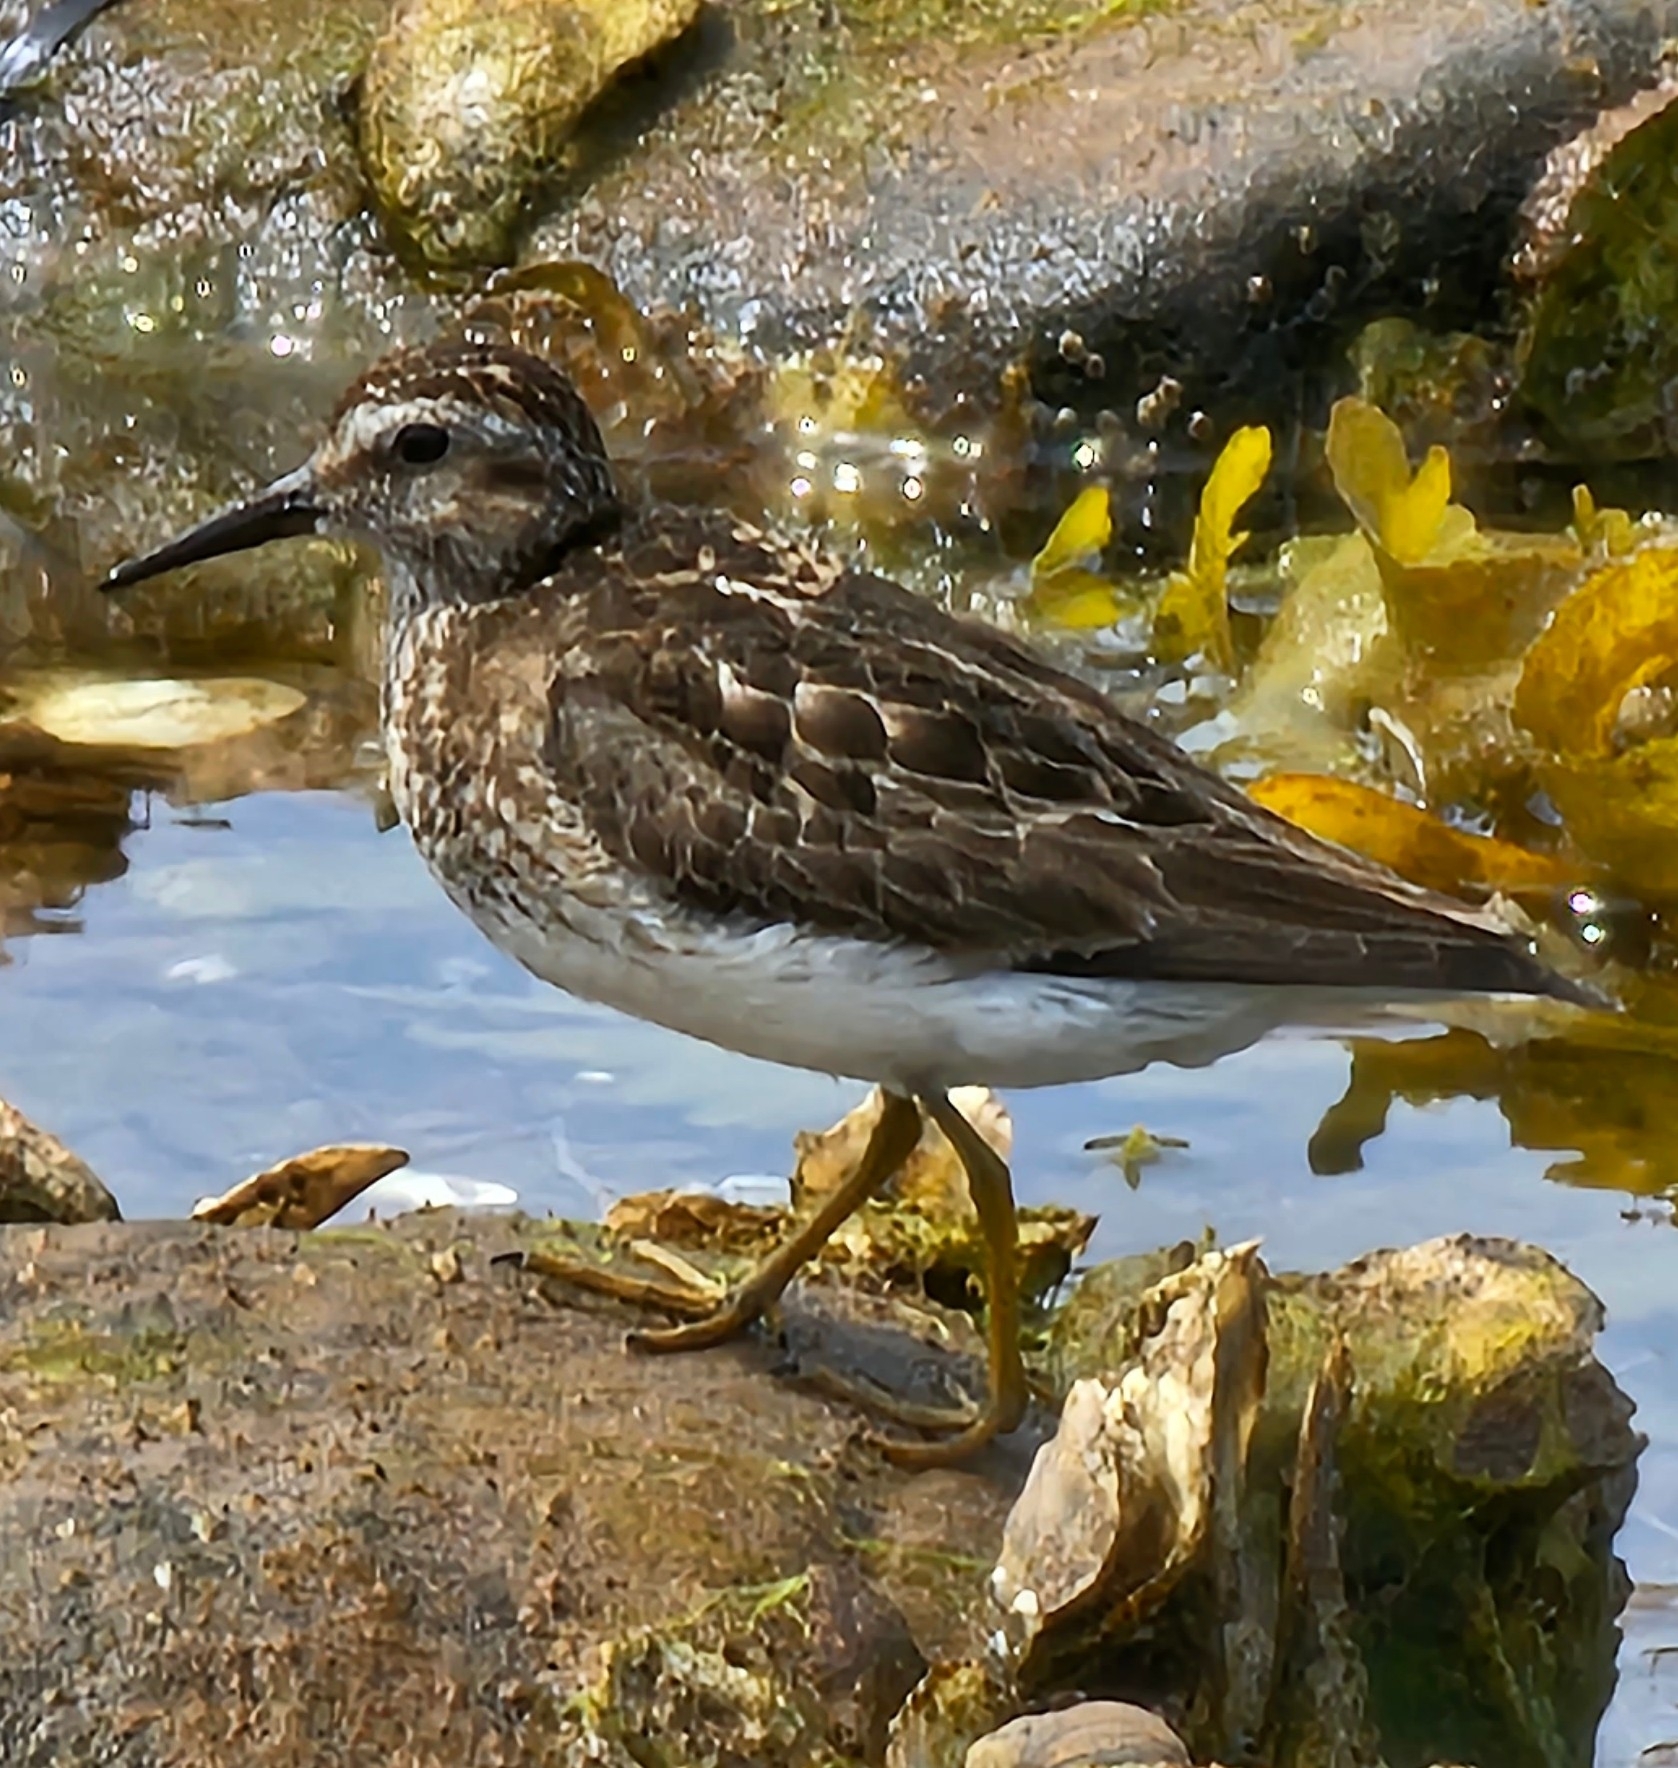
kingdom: Animalia
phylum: Chordata
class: Aves
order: Charadriiformes
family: Scolopacidae
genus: Calidris
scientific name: Calidris minutilla
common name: Least sandpiper
